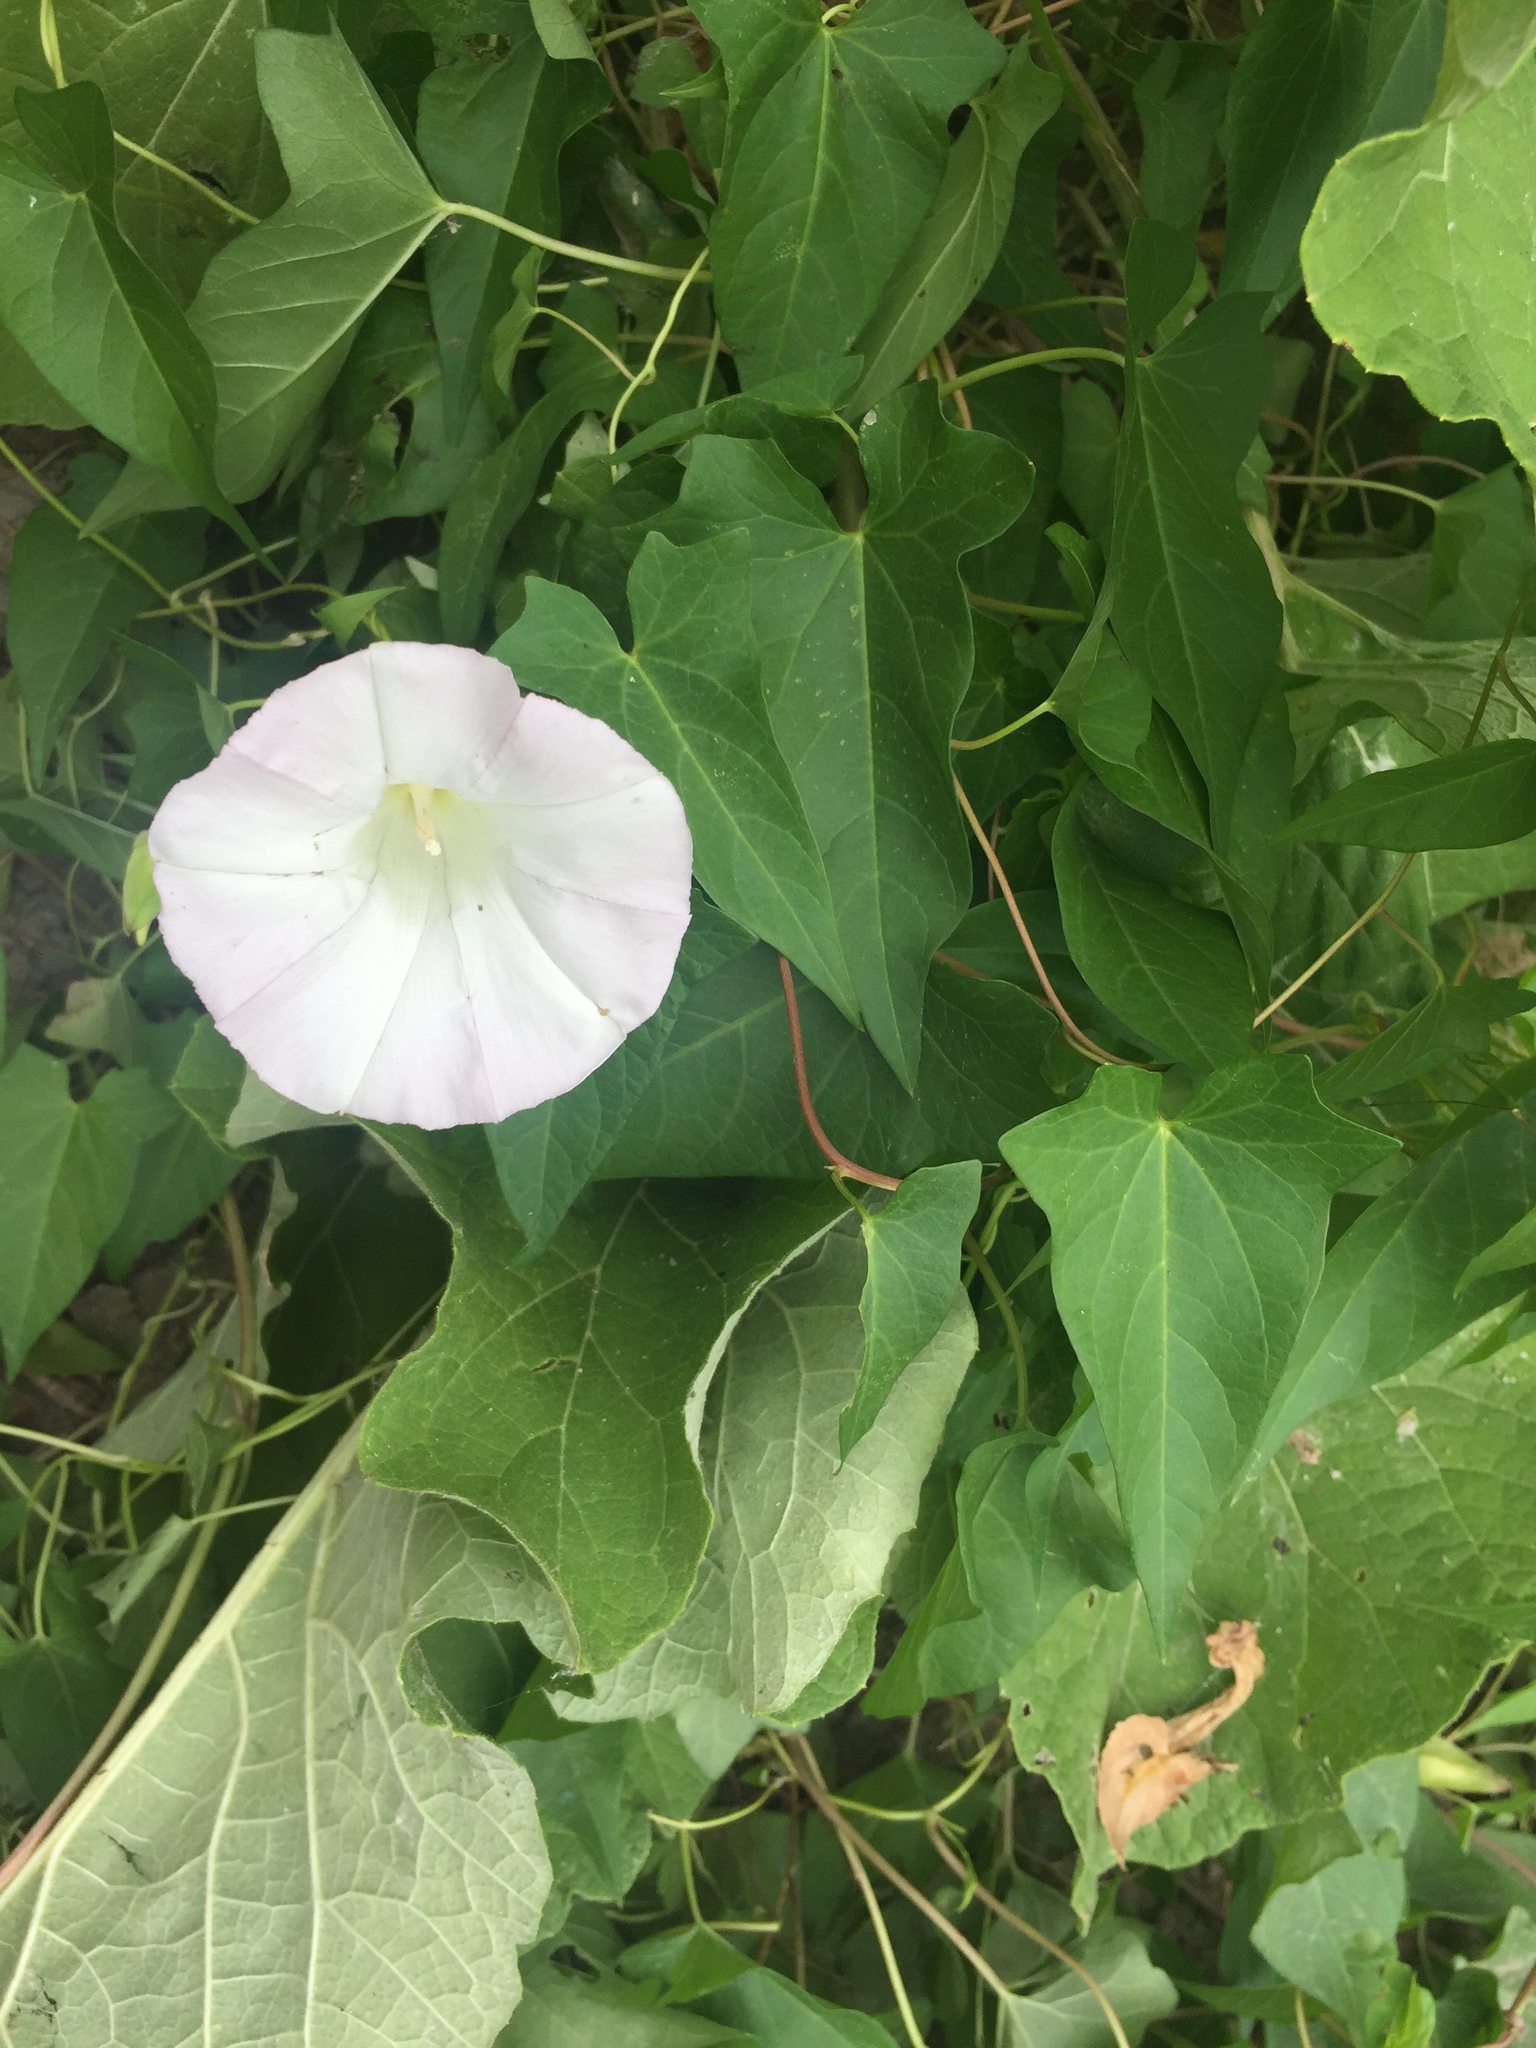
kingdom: Plantae
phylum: Tracheophyta
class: Magnoliopsida
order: Solanales
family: Convolvulaceae
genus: Calystegia
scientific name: Calystegia sepium
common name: Hedge bindweed
